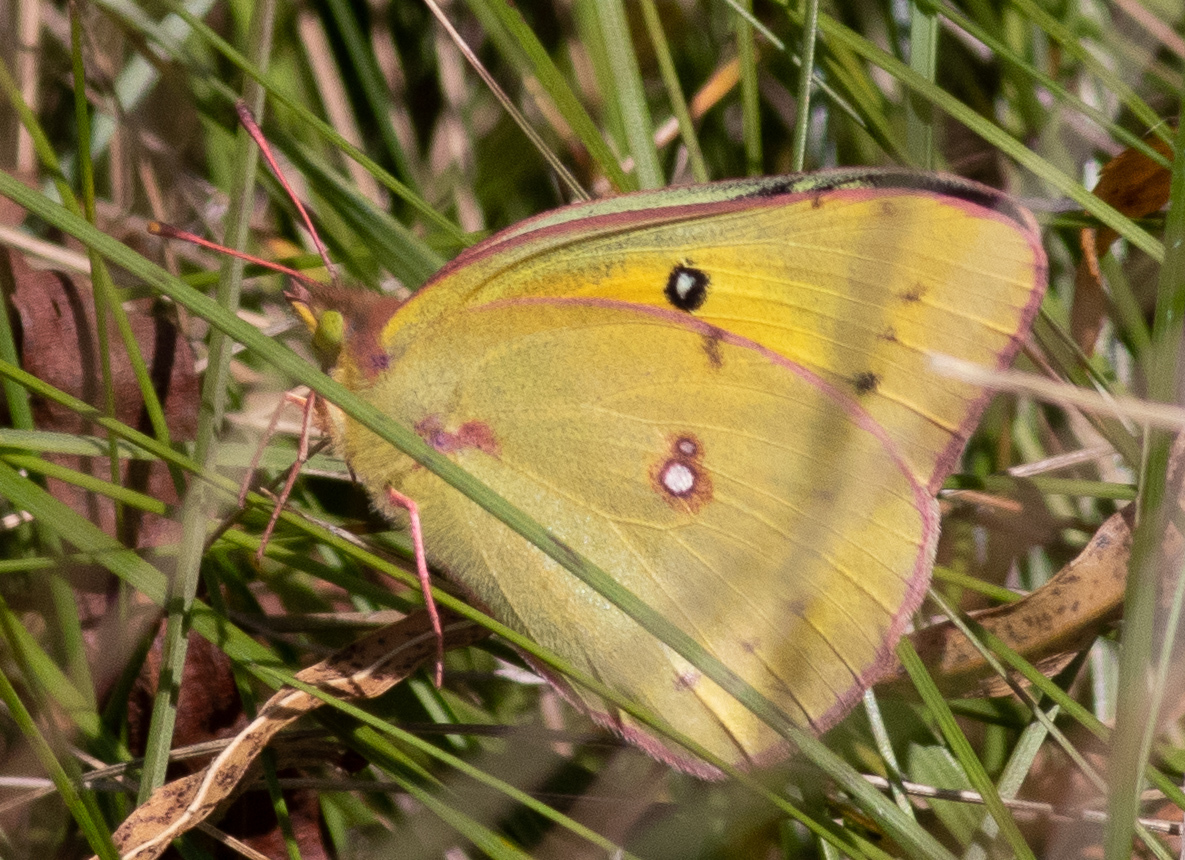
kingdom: Animalia
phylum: Arthropoda
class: Insecta
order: Lepidoptera
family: Pieridae
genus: Colias
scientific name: Colias eurytheme
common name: Alfalfa butterfly
